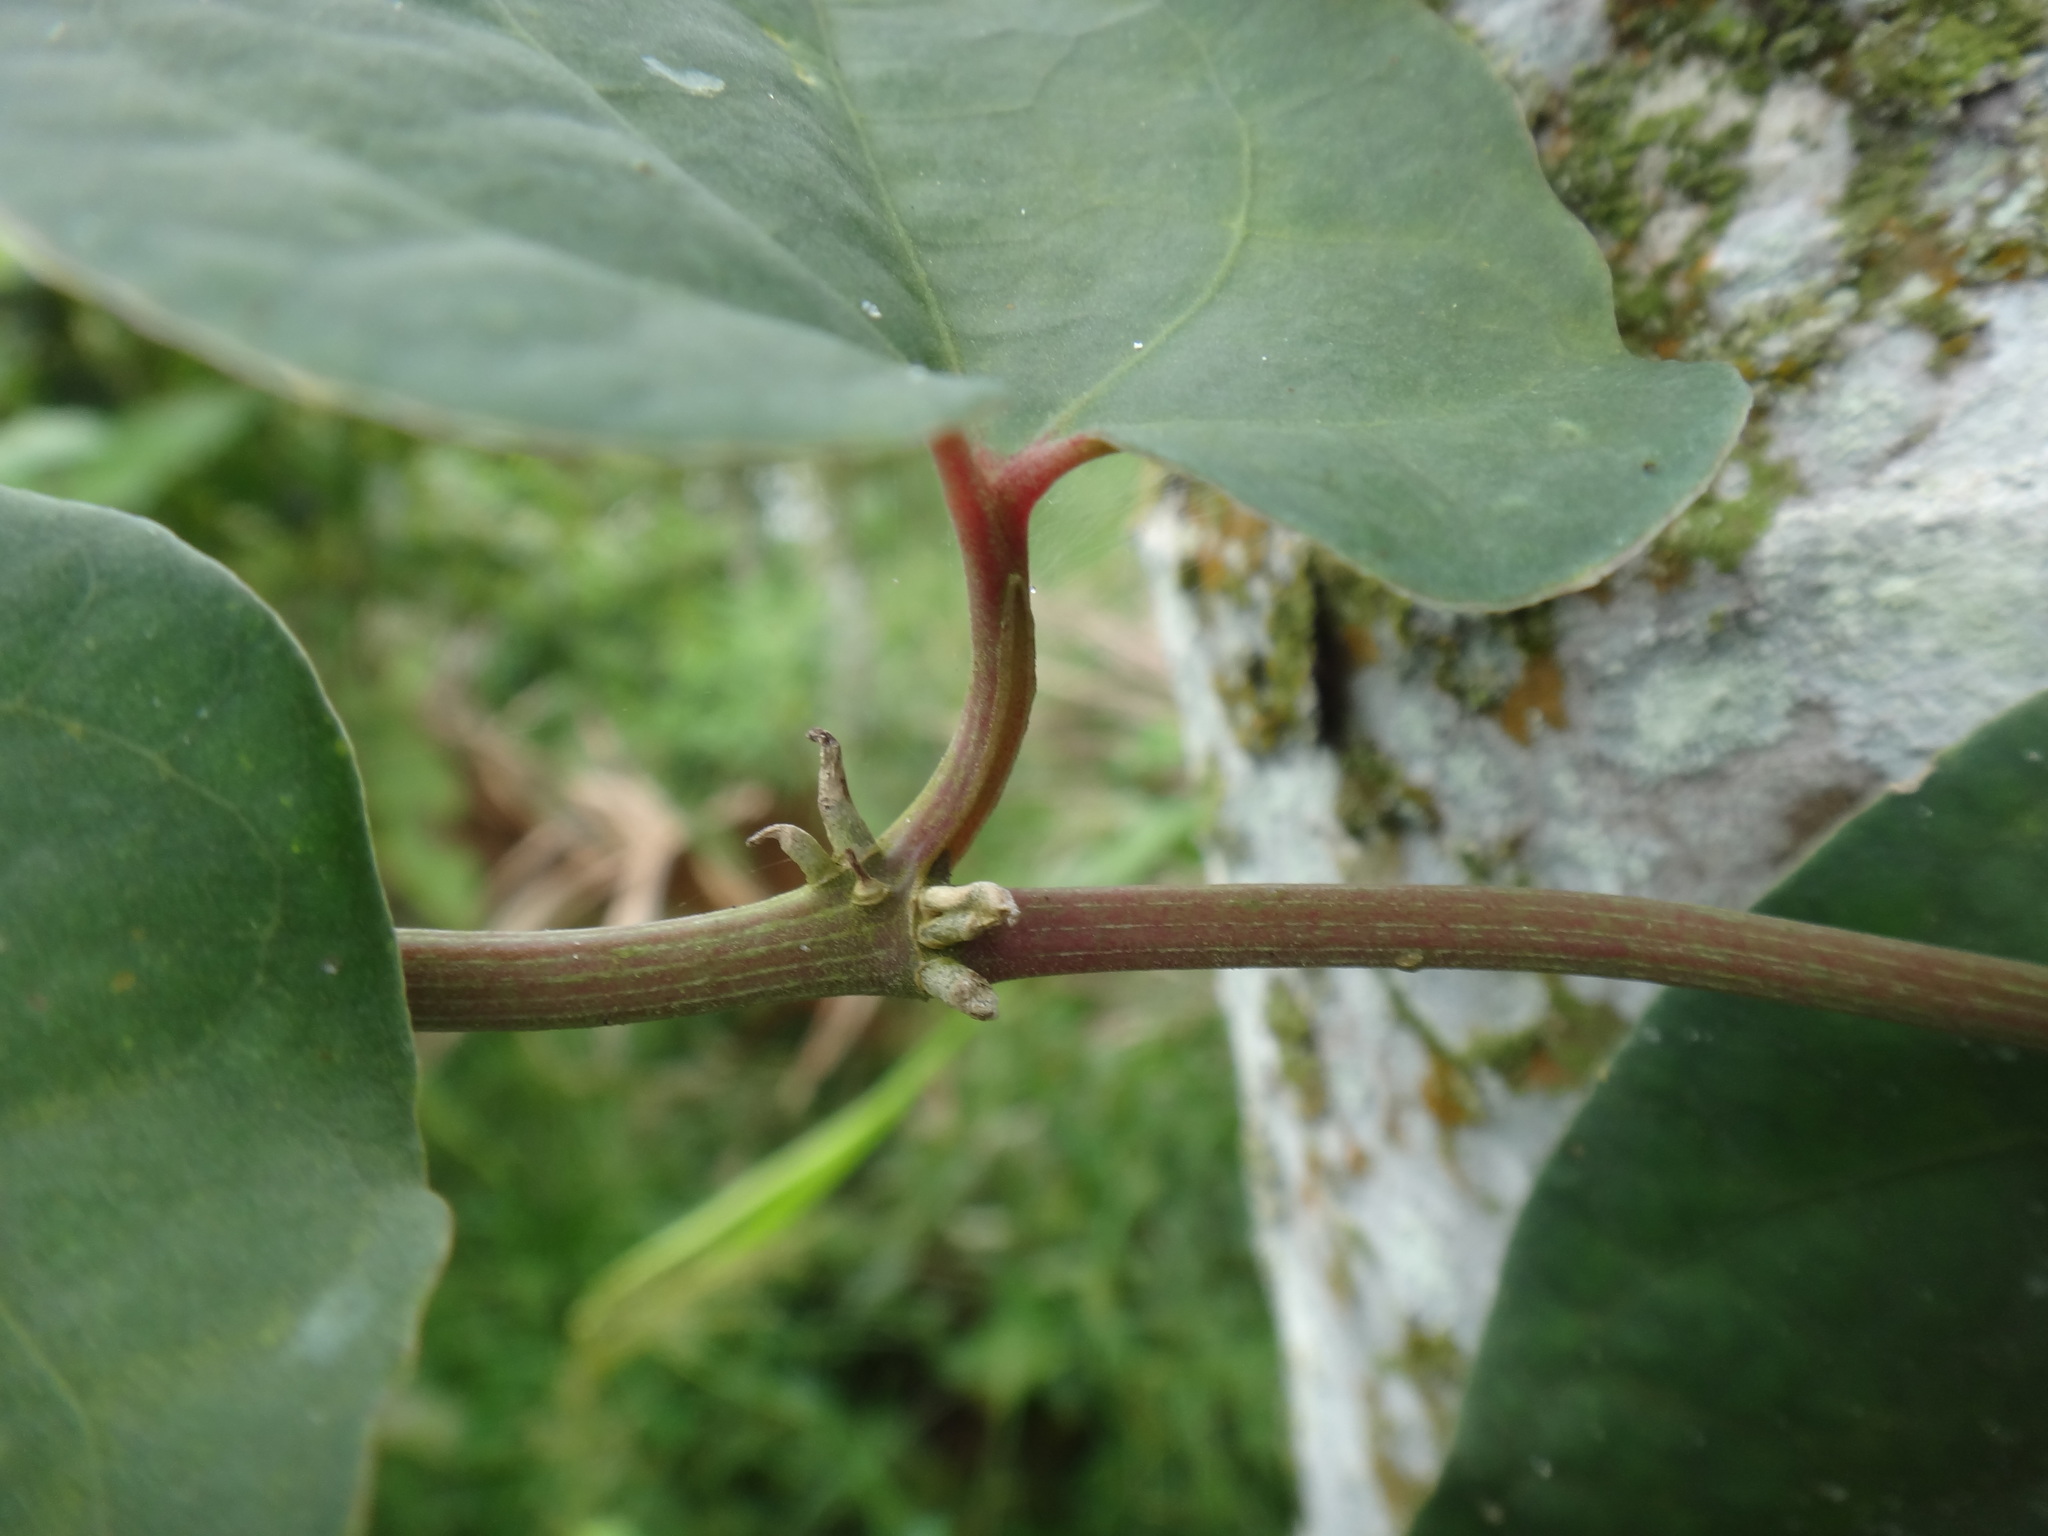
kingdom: Plantae
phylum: Tracheophyta
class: Magnoliopsida
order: Piperales
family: Piperaceae
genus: Piper
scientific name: Piper taiwanense
